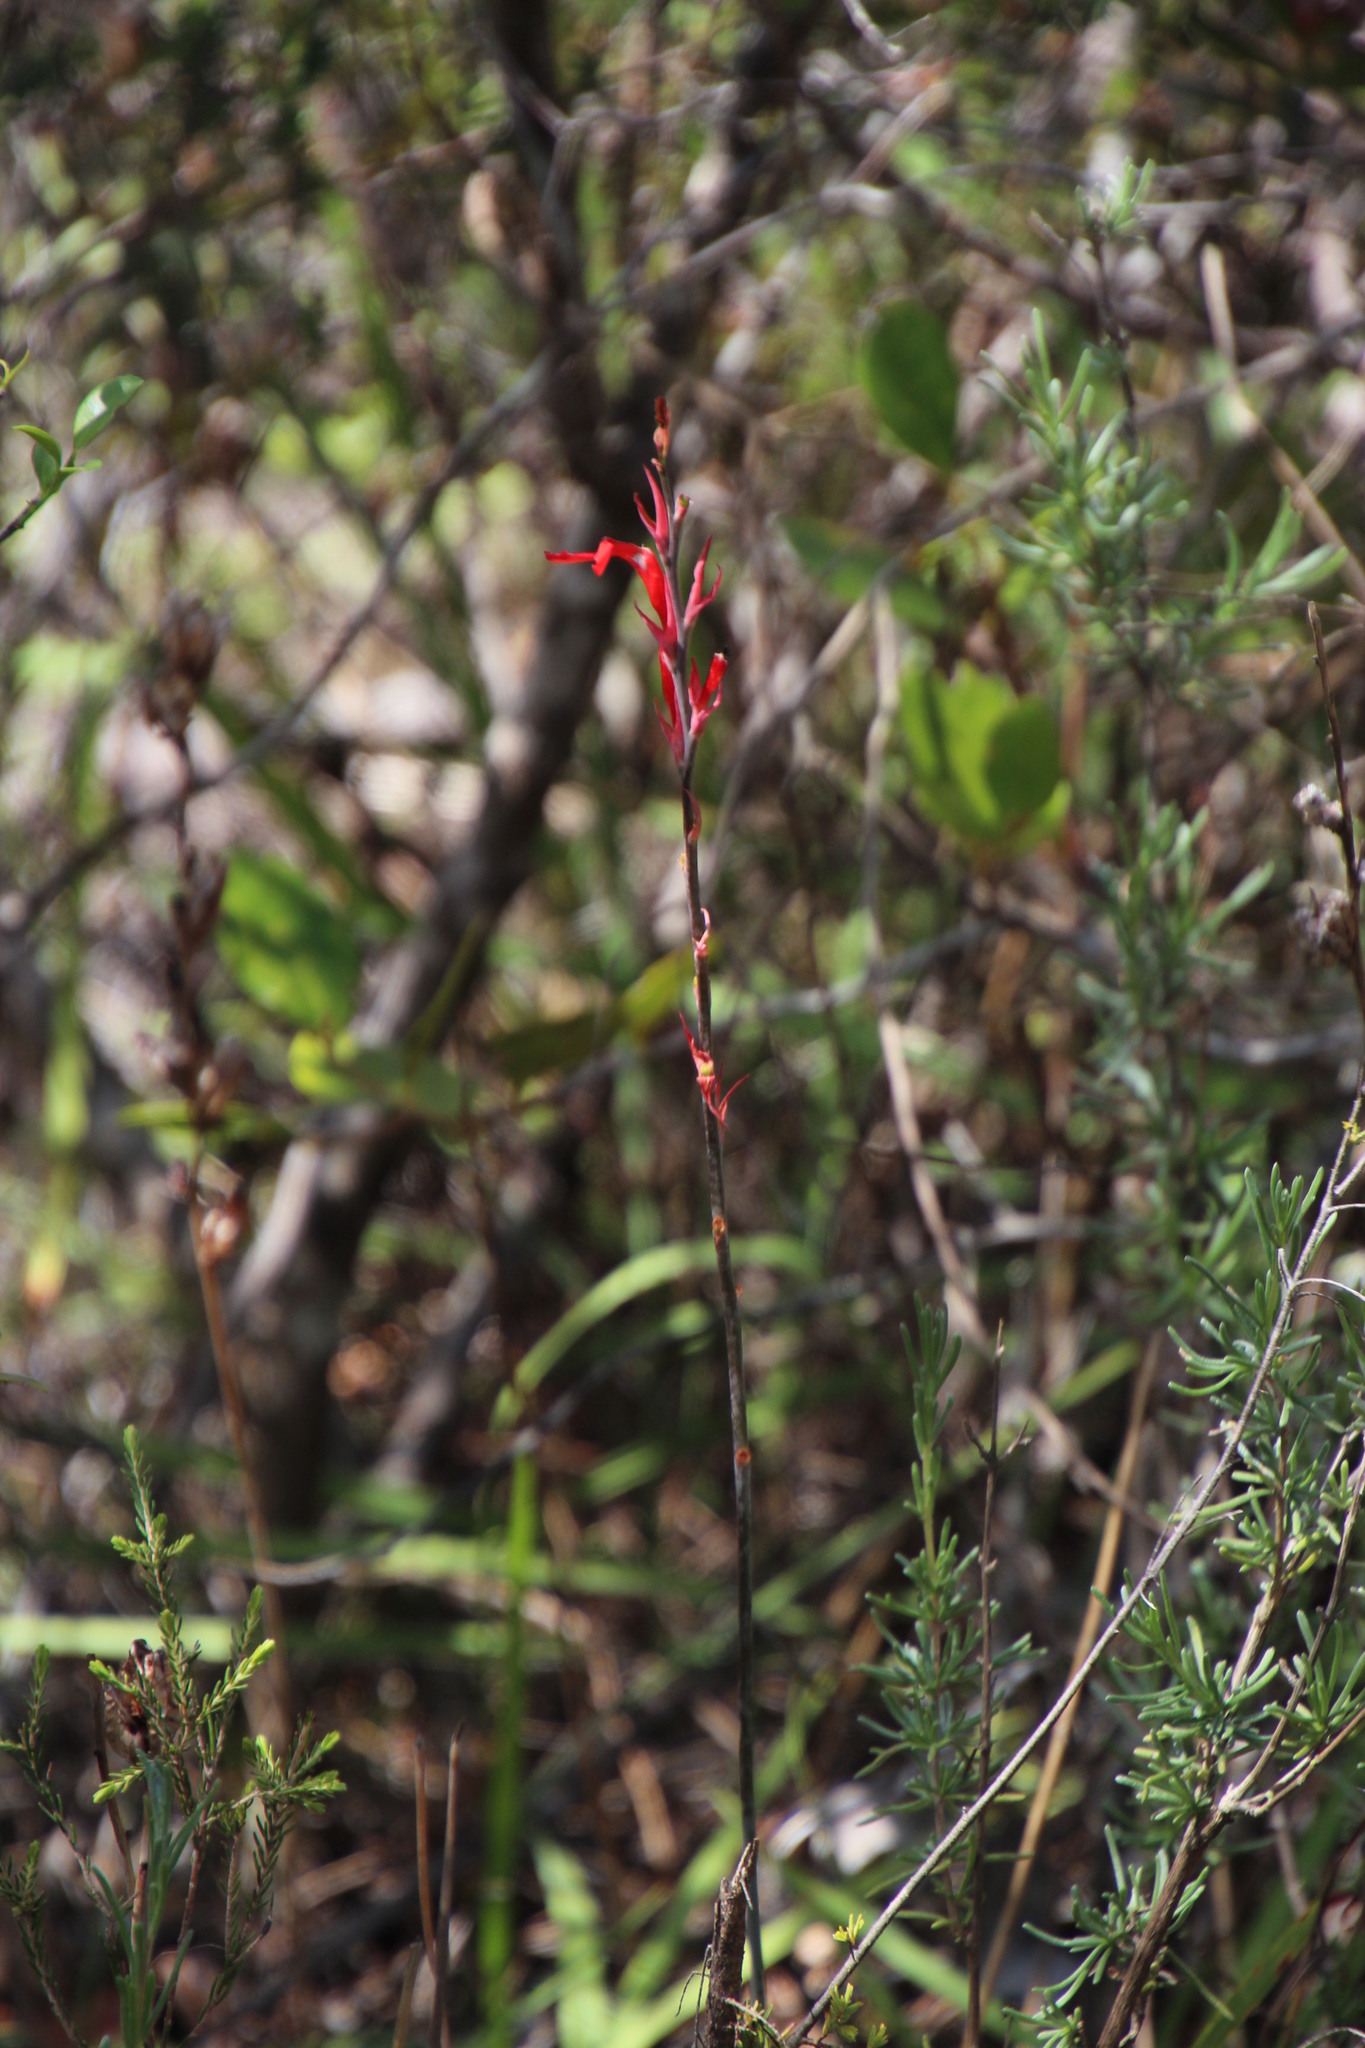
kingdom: Plantae
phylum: Tracheophyta
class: Liliopsida
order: Zingiberales
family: Cannaceae
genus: Canna
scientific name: Canna indica
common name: Indian shot
